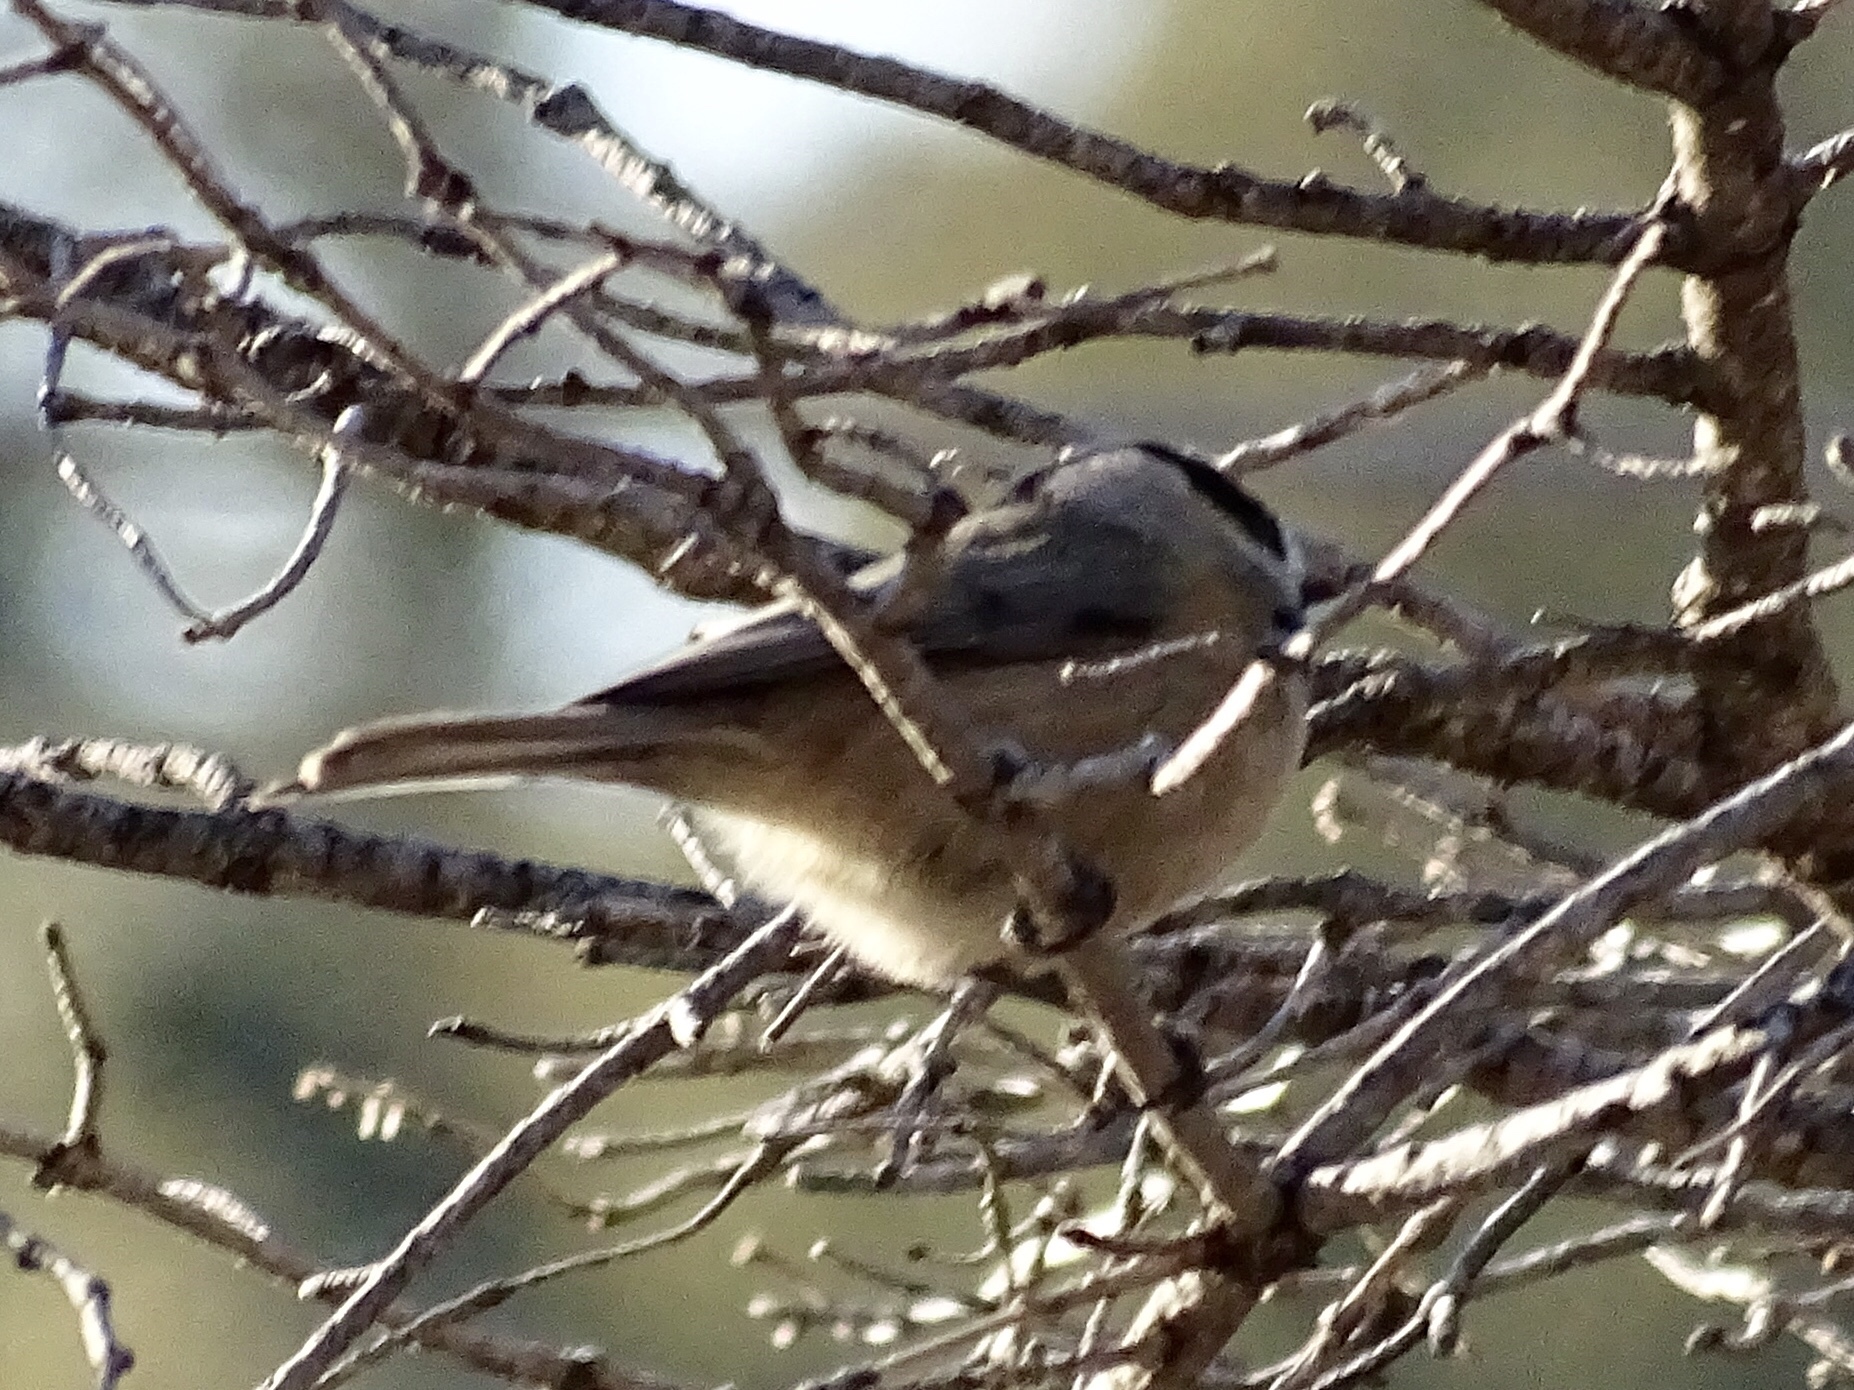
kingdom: Animalia
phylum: Chordata
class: Aves
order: Passeriformes
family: Paridae
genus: Poecile
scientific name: Poecile gambeli
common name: Mountain chickadee
